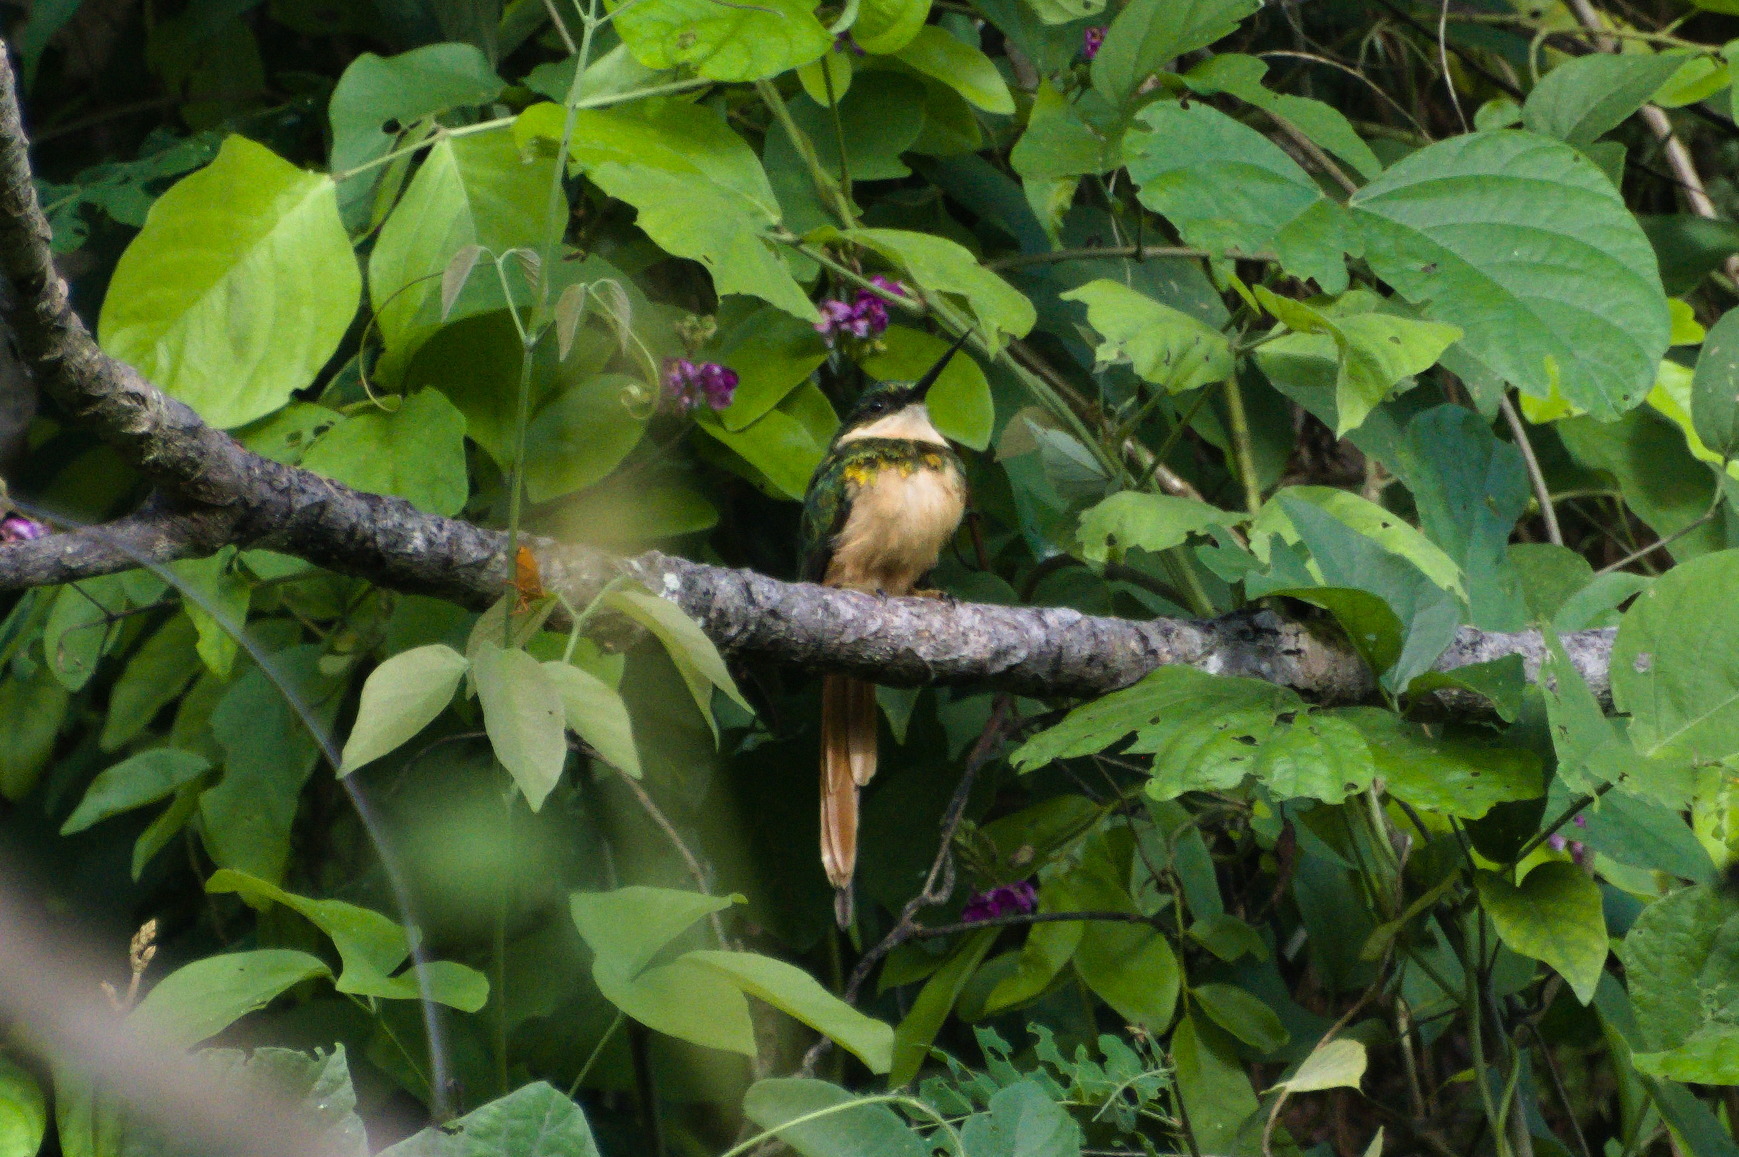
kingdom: Animalia
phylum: Chordata
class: Aves
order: Piciformes
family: Galbulidae
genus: Galbula
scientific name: Galbula ruficauda
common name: Rufous-tailed jacamar
